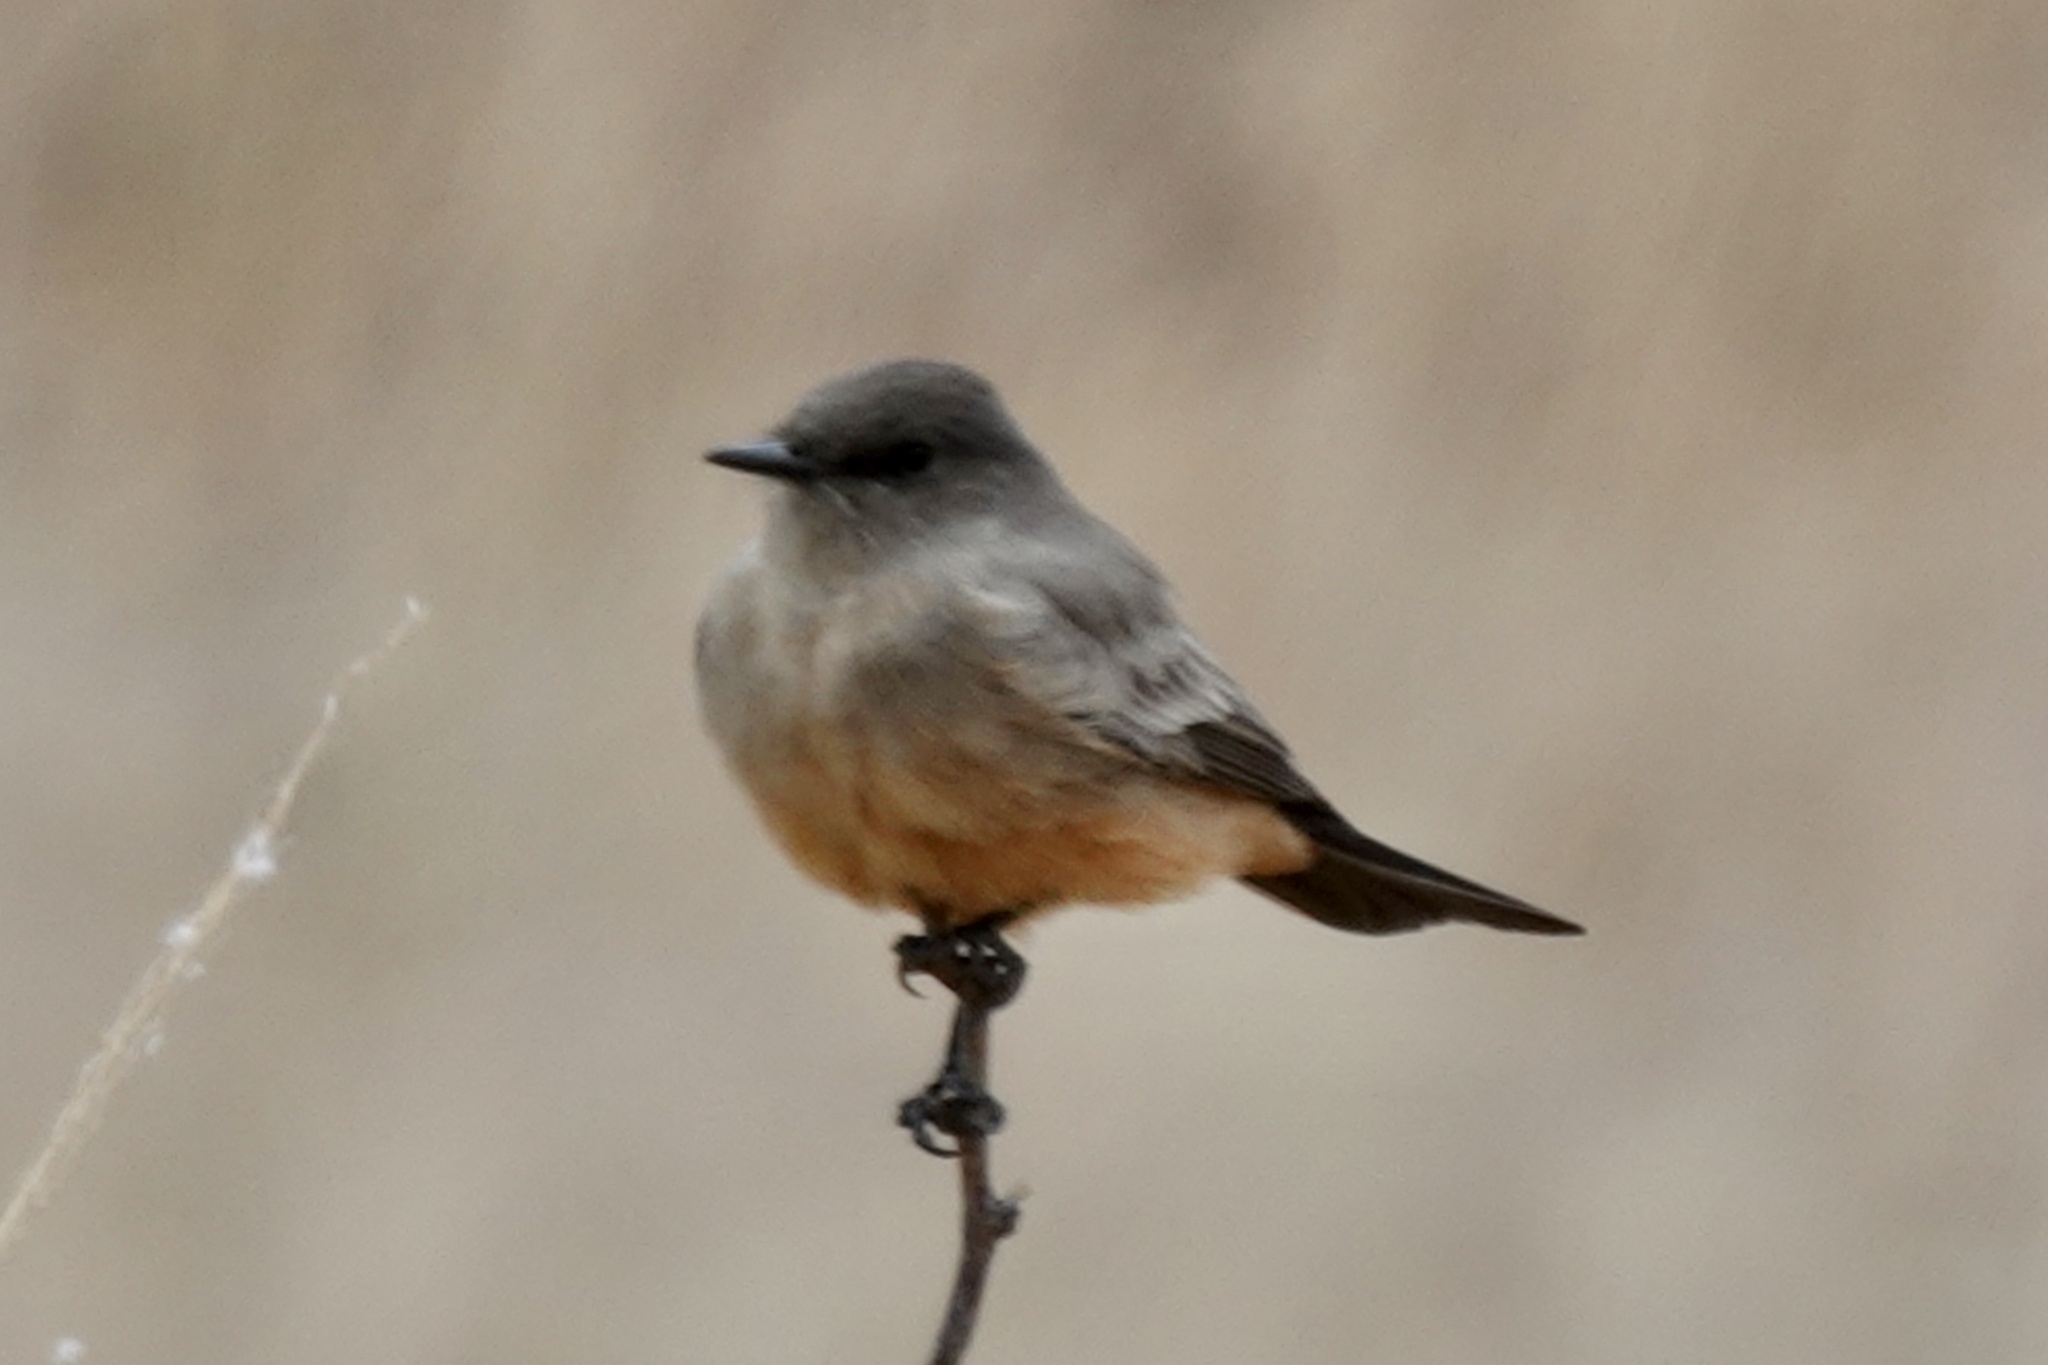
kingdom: Animalia
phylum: Chordata
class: Aves
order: Passeriformes
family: Tyrannidae
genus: Sayornis
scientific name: Sayornis saya
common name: Say's phoebe
